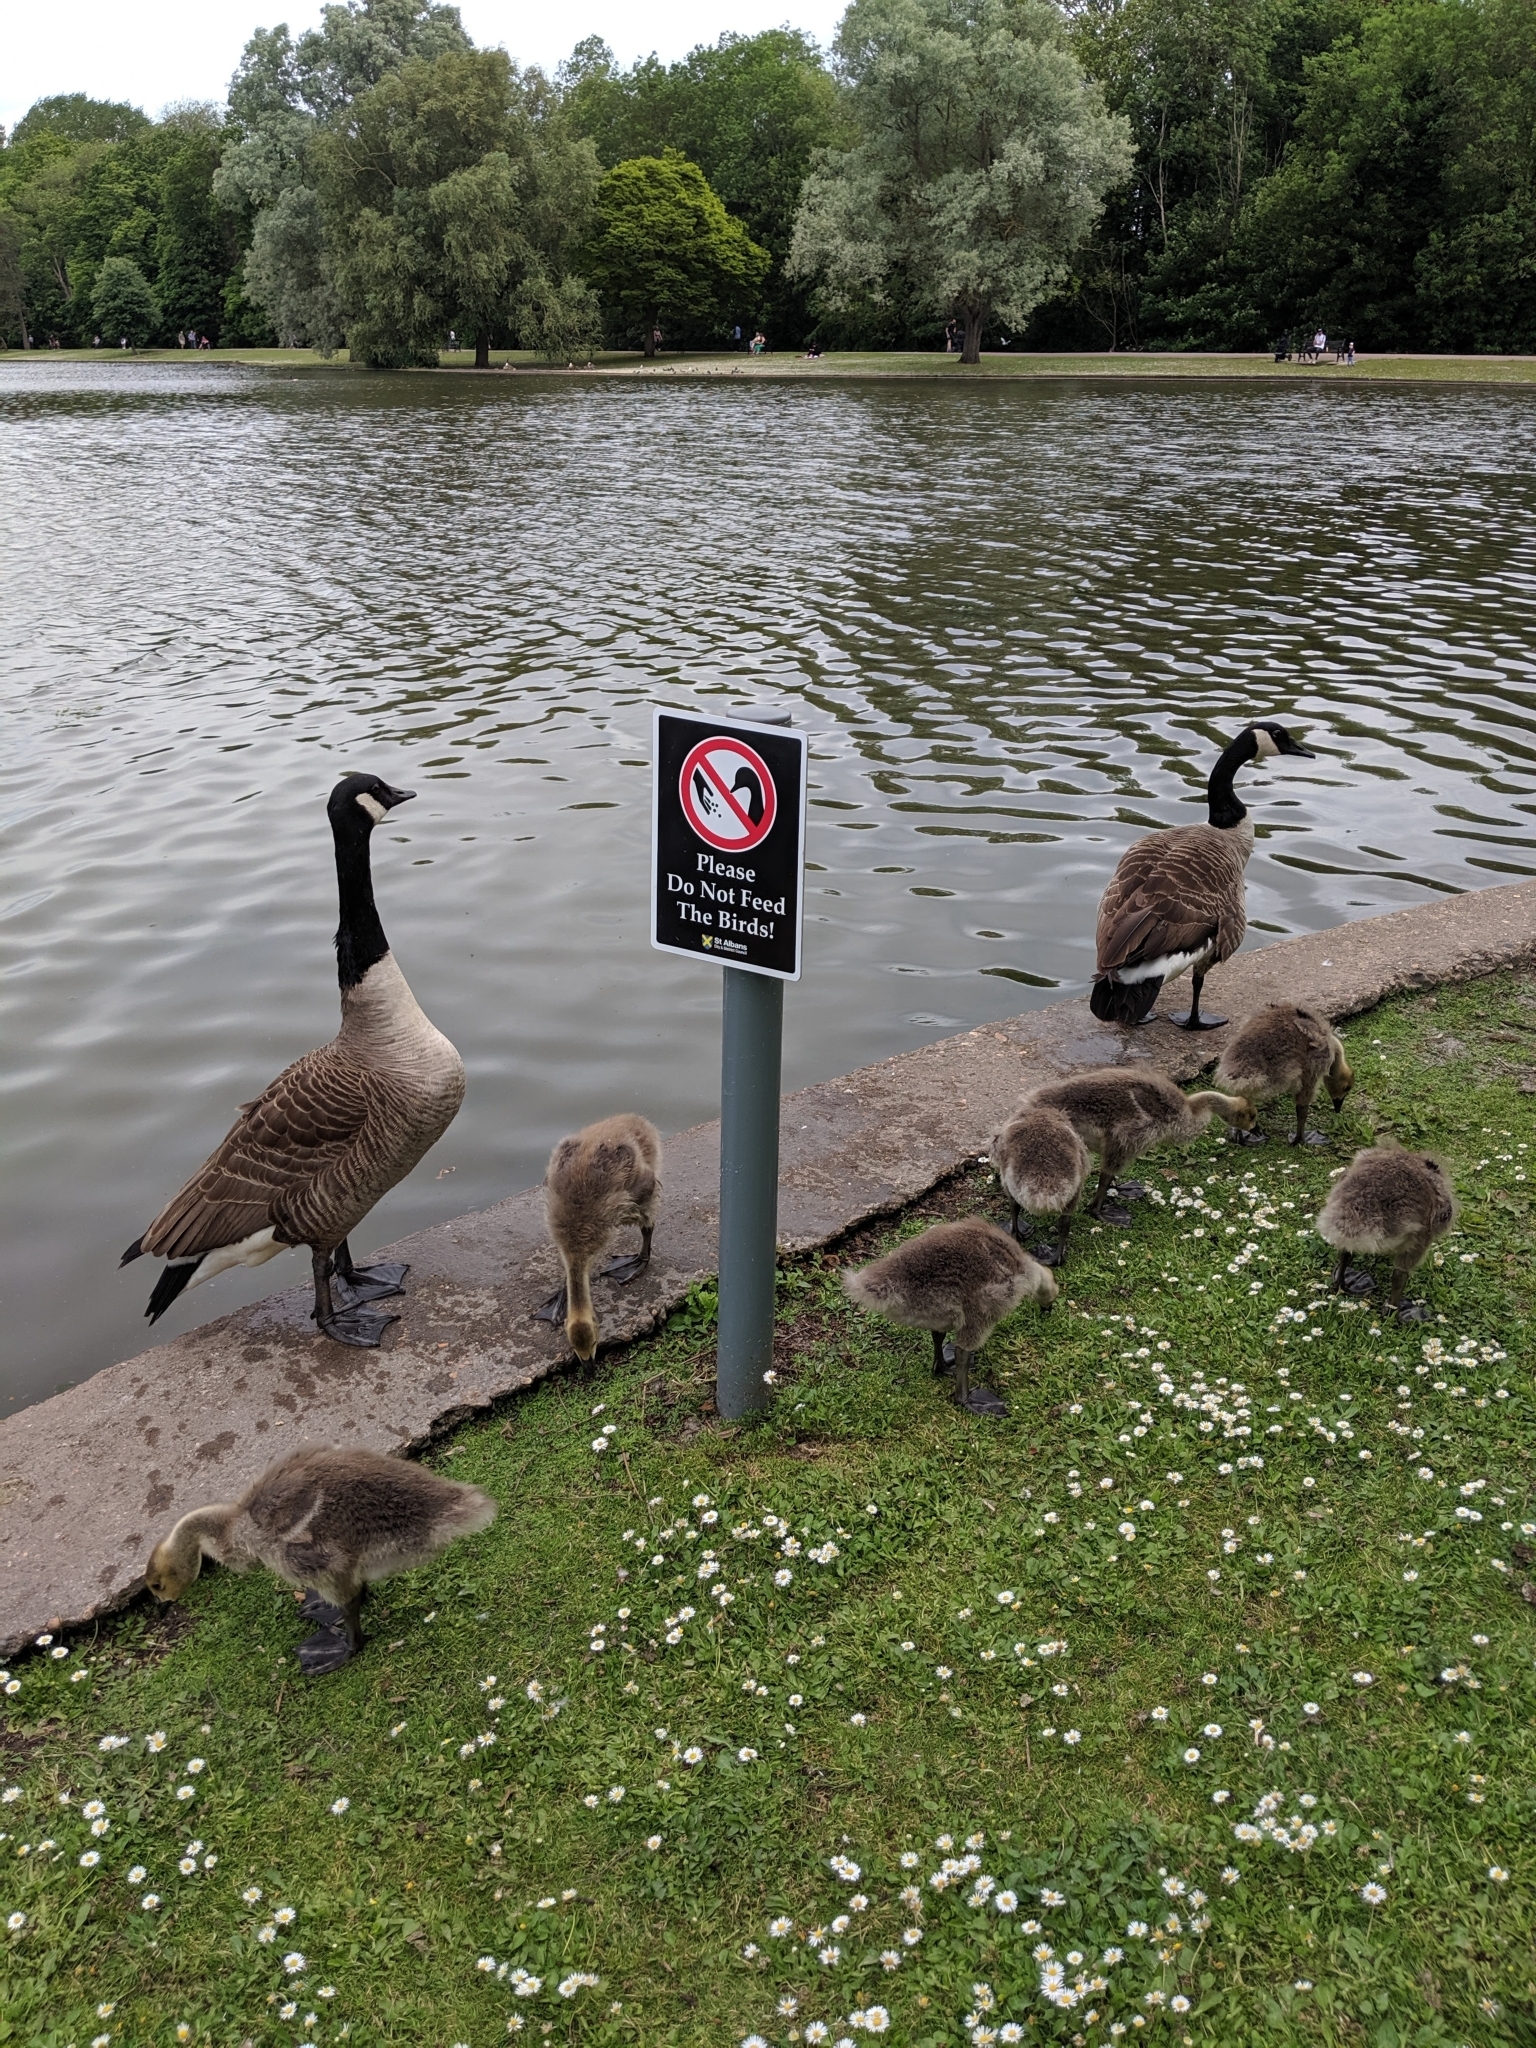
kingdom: Animalia
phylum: Chordata
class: Aves
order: Anseriformes
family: Anatidae
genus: Branta
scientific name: Branta canadensis
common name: Canada goose
